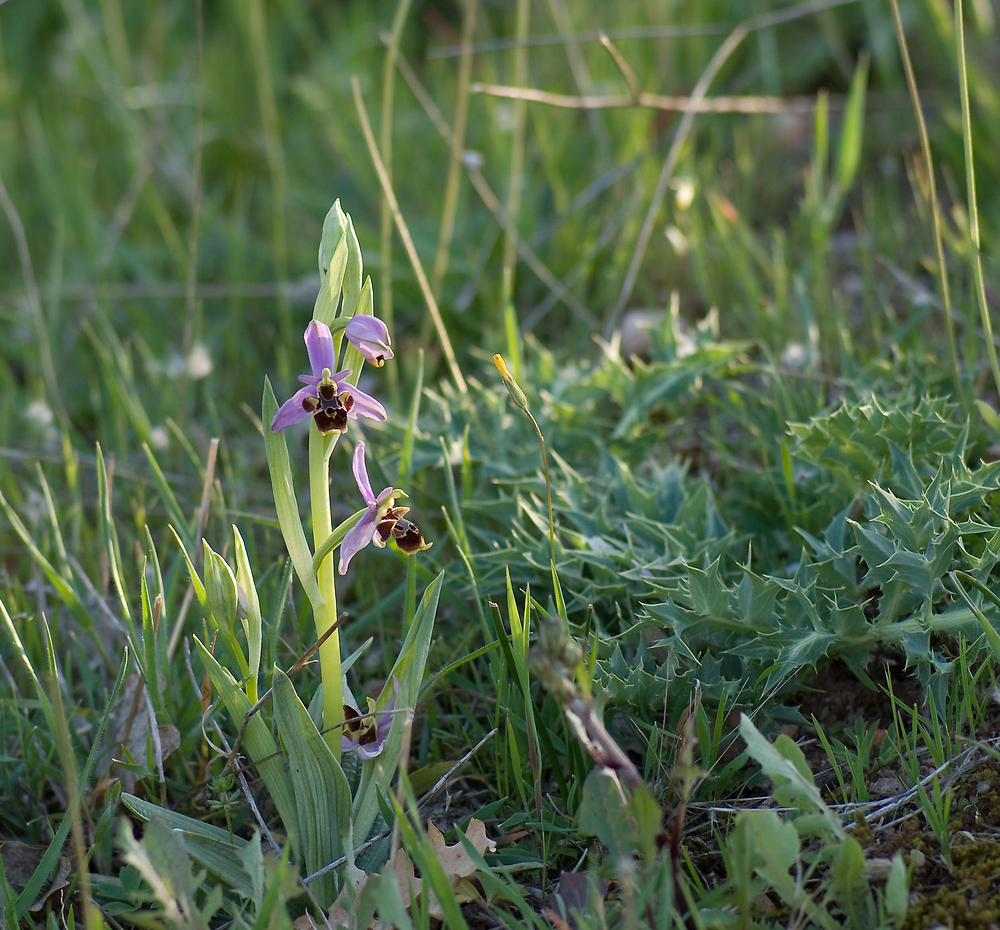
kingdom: Plantae
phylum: Tracheophyta
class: Liliopsida
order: Asparagales
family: Orchidaceae
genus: Ophrys
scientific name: Ophrys scolopax
